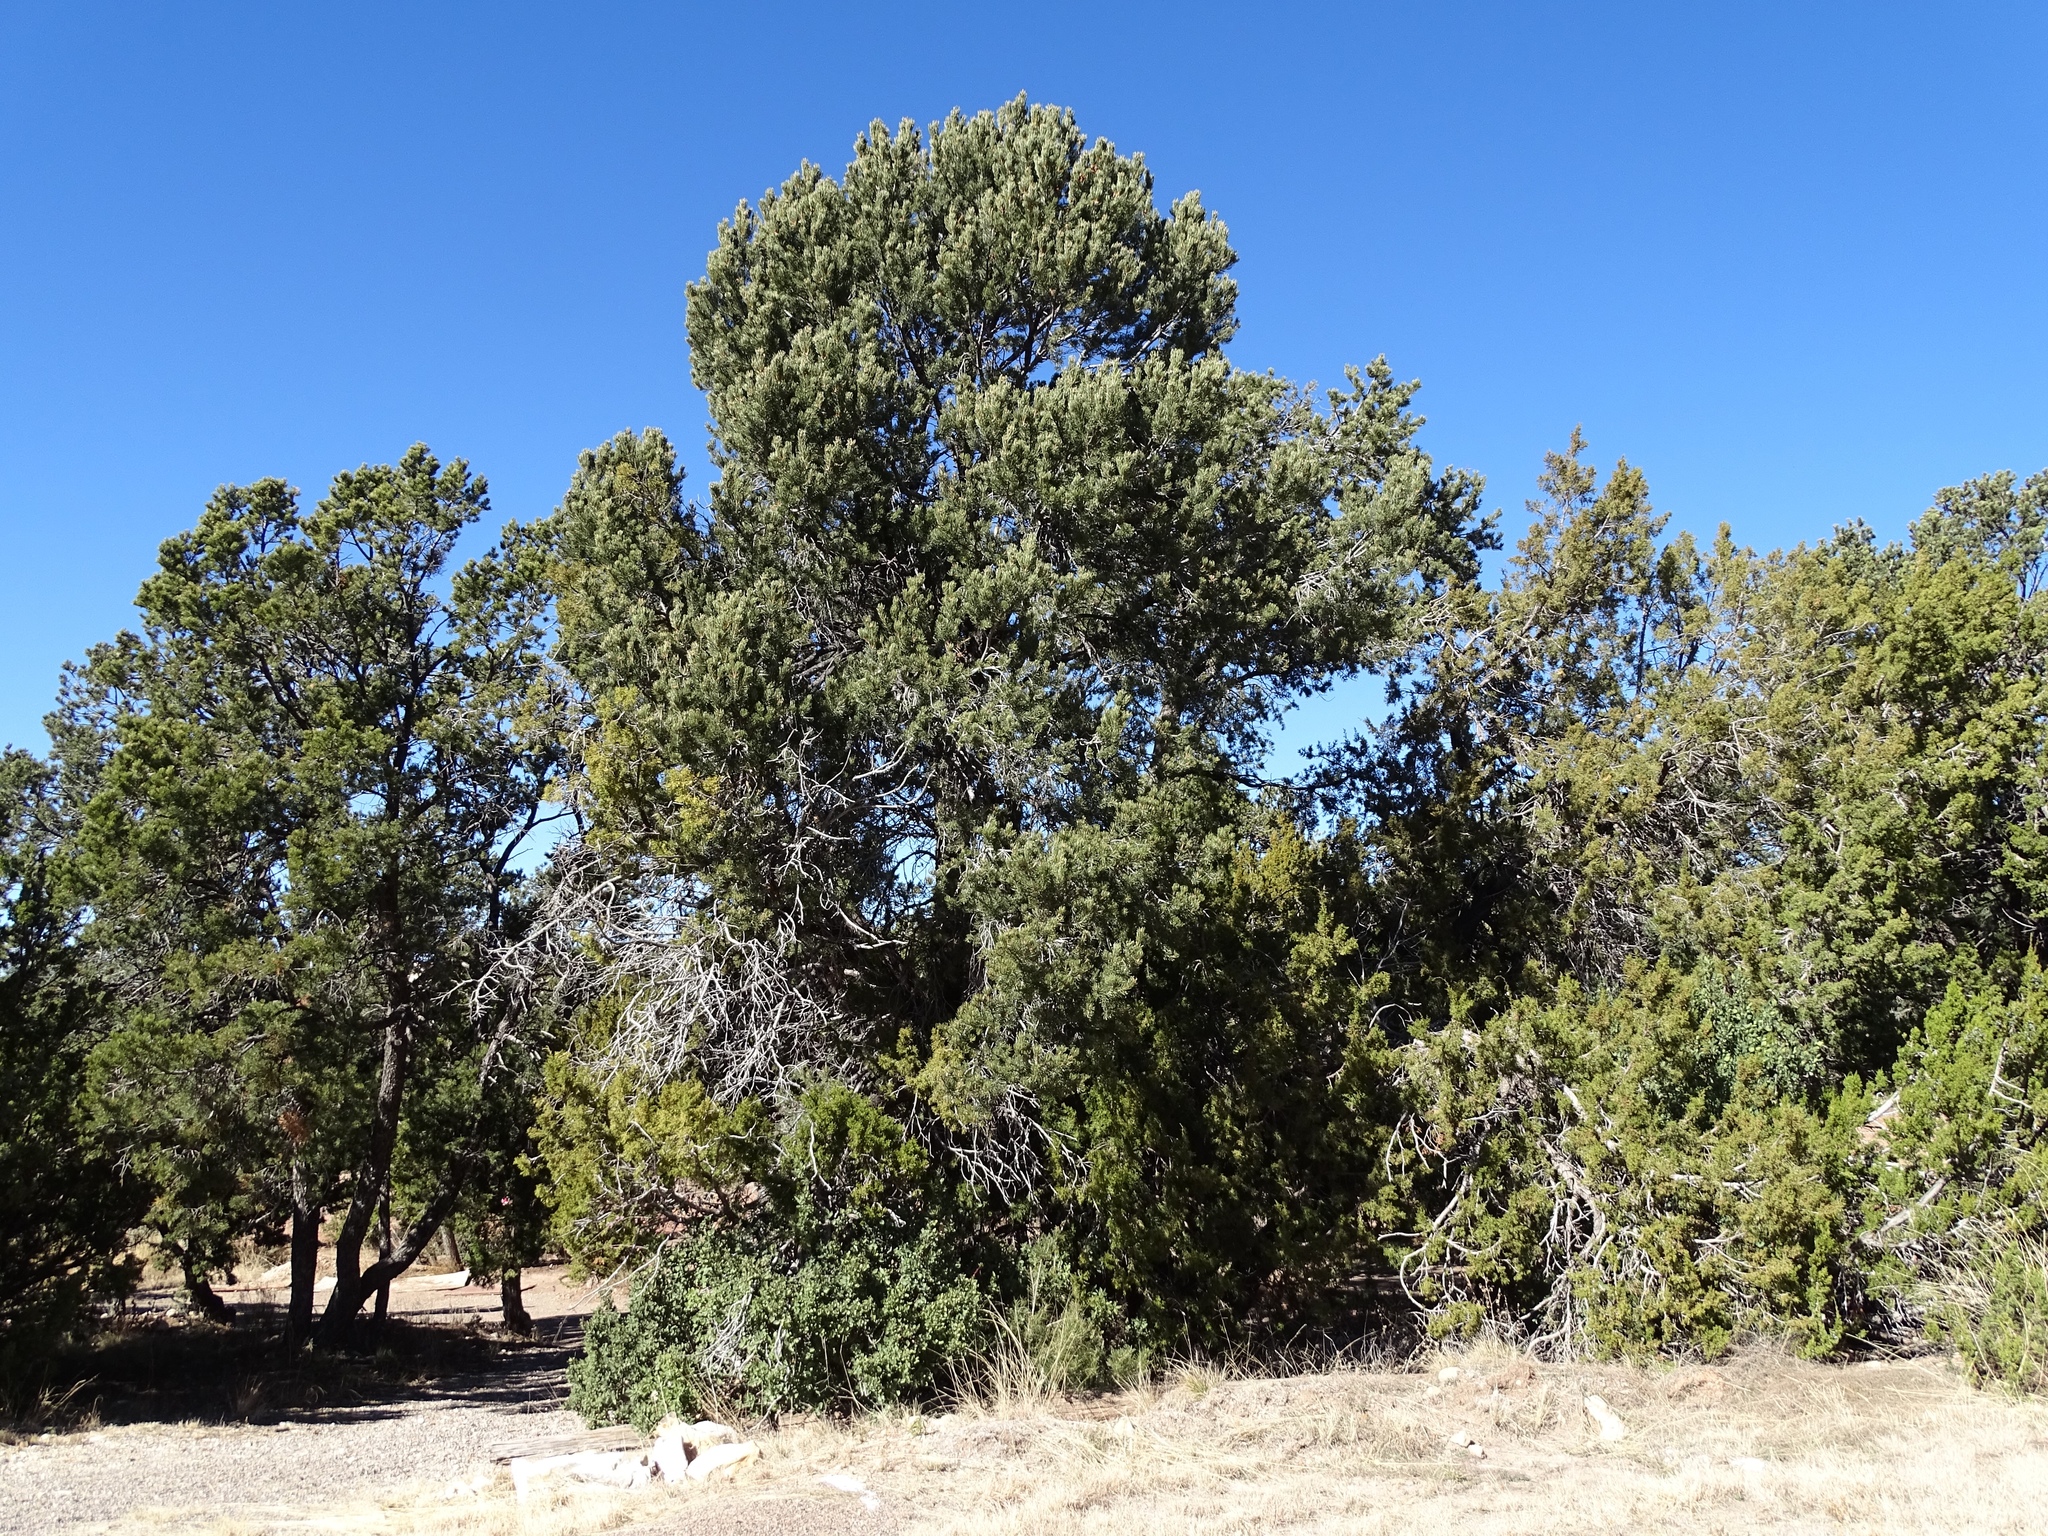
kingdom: Plantae
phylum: Tracheophyta
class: Pinopsida
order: Pinales
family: Pinaceae
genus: Pinus
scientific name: Pinus edulis
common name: Colorado pinyon
